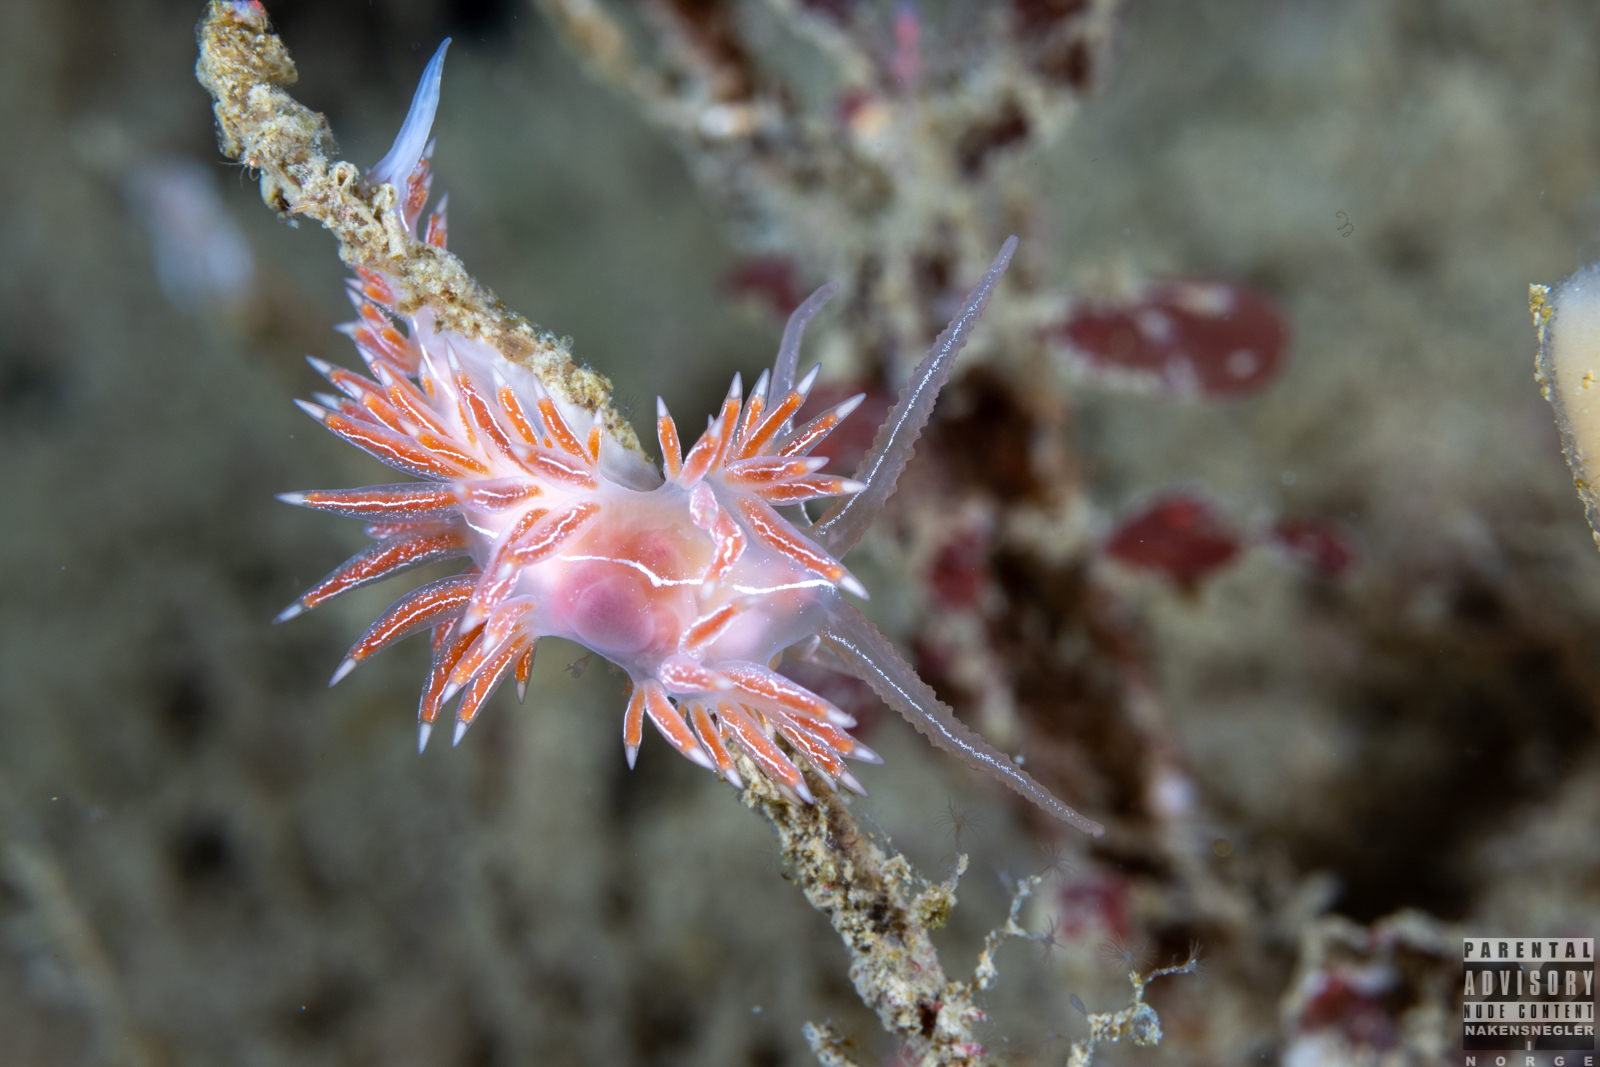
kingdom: Animalia
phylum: Mollusca
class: Gastropoda
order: Nudibranchia
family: Coryphellidae
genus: Coryphella
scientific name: Coryphella chriskaugei
